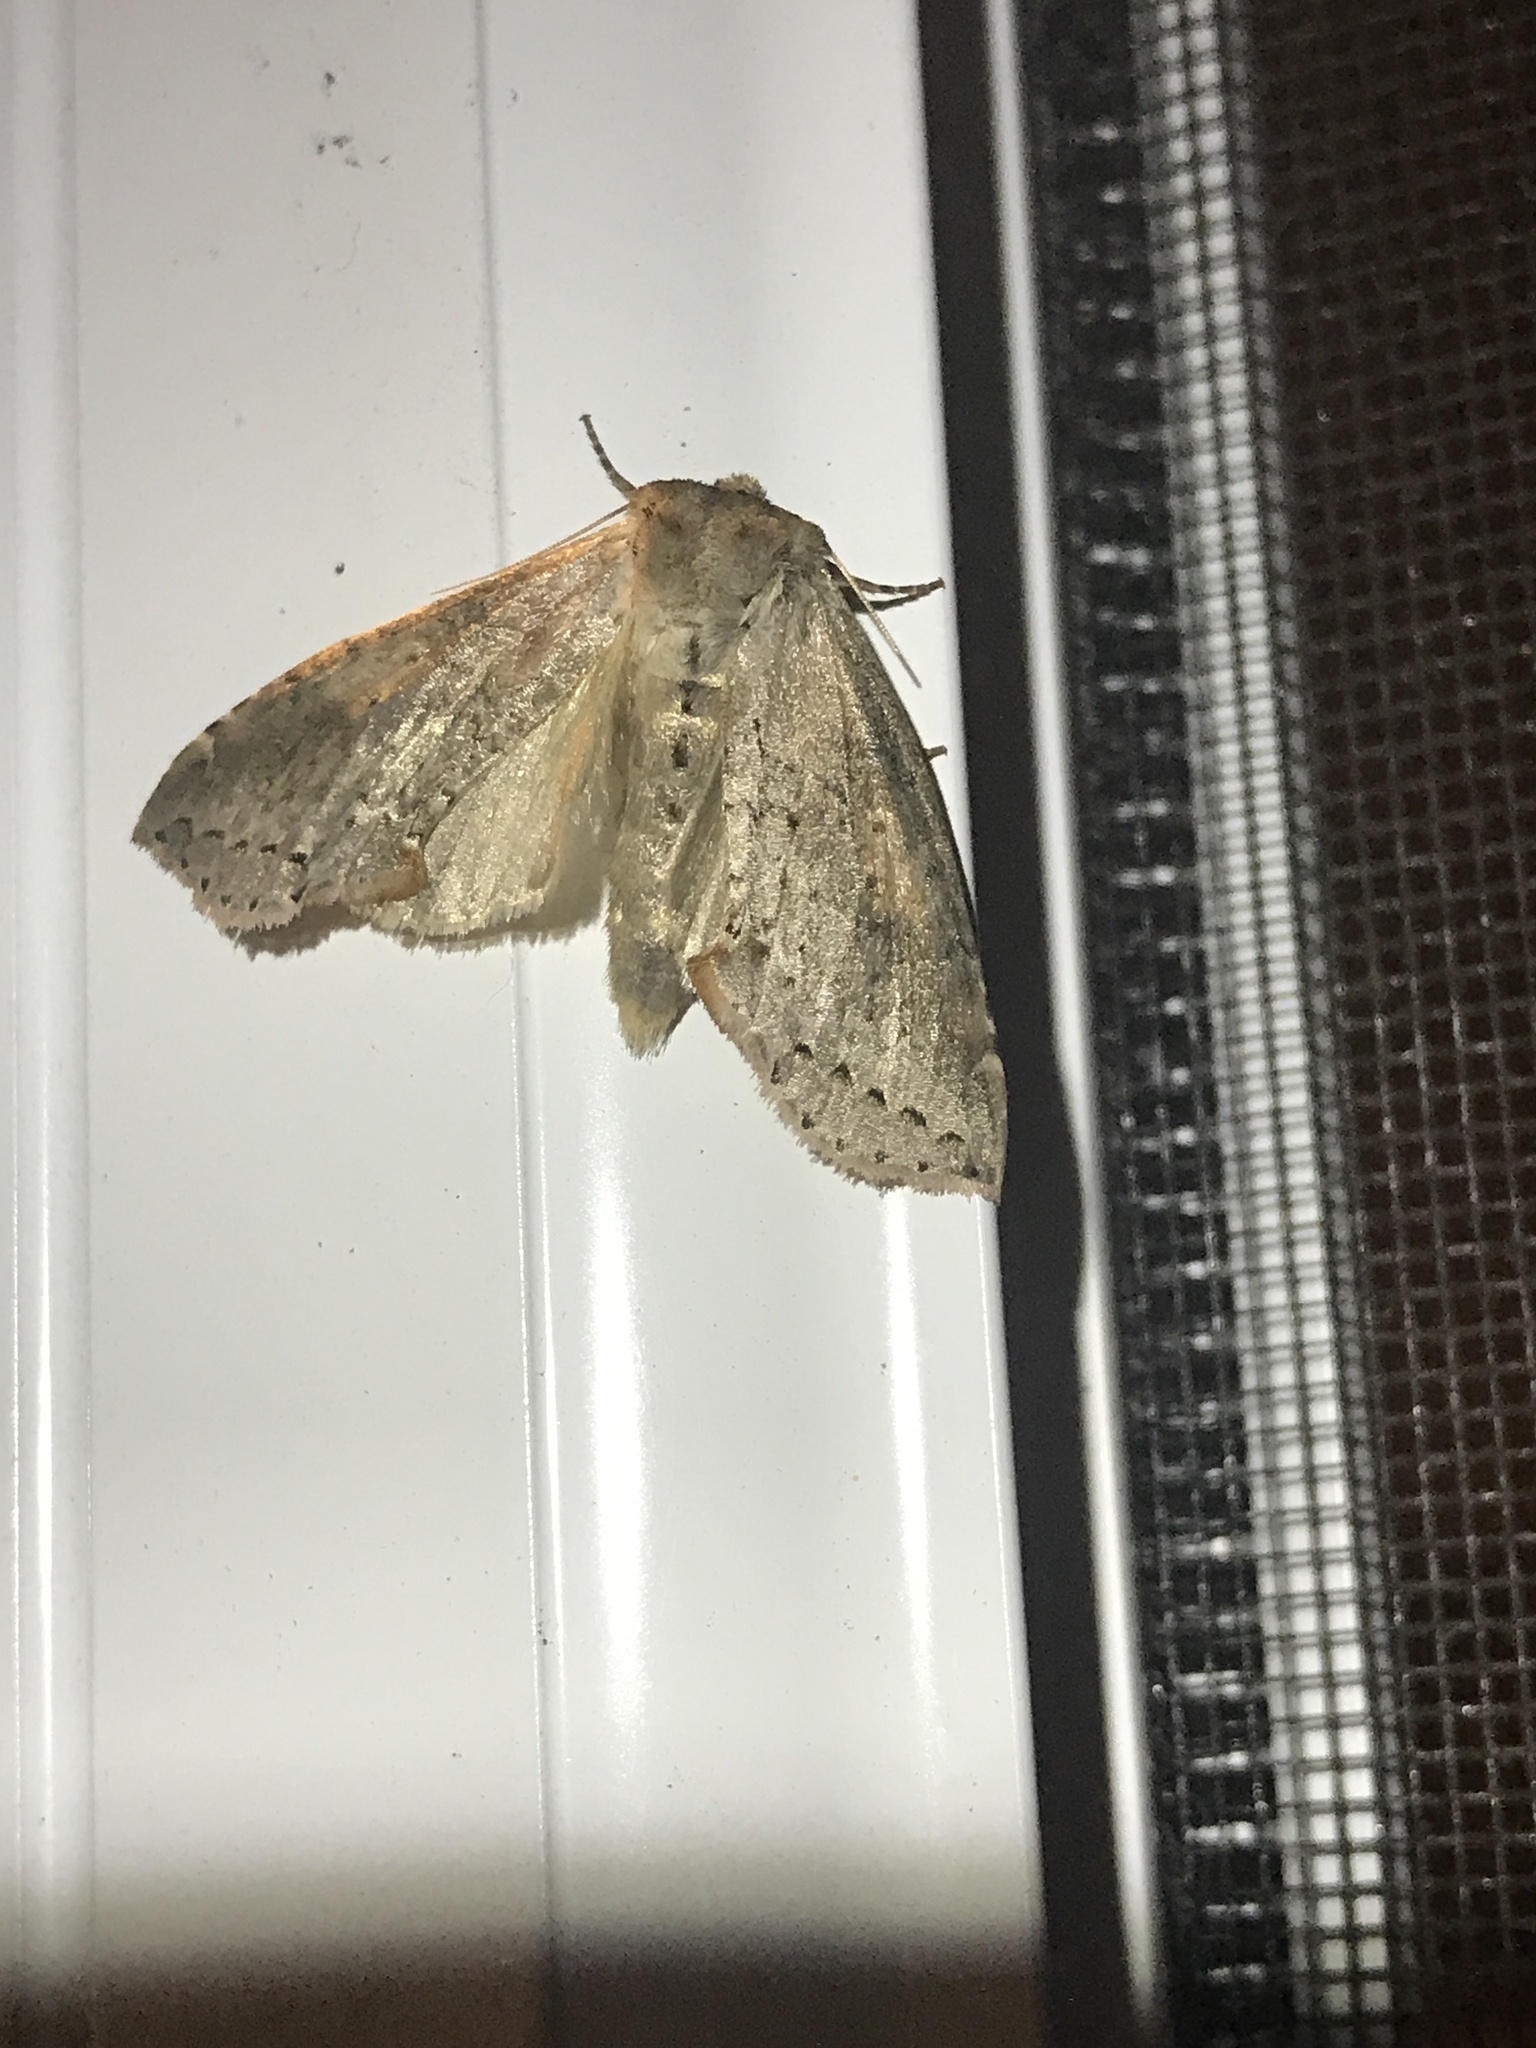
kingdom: Animalia
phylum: Arthropoda
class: Insecta
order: Lepidoptera
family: Drepanidae
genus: Pseudothyatira
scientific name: Pseudothyatira cymatophoroides
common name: Tufted thyatirid moth
